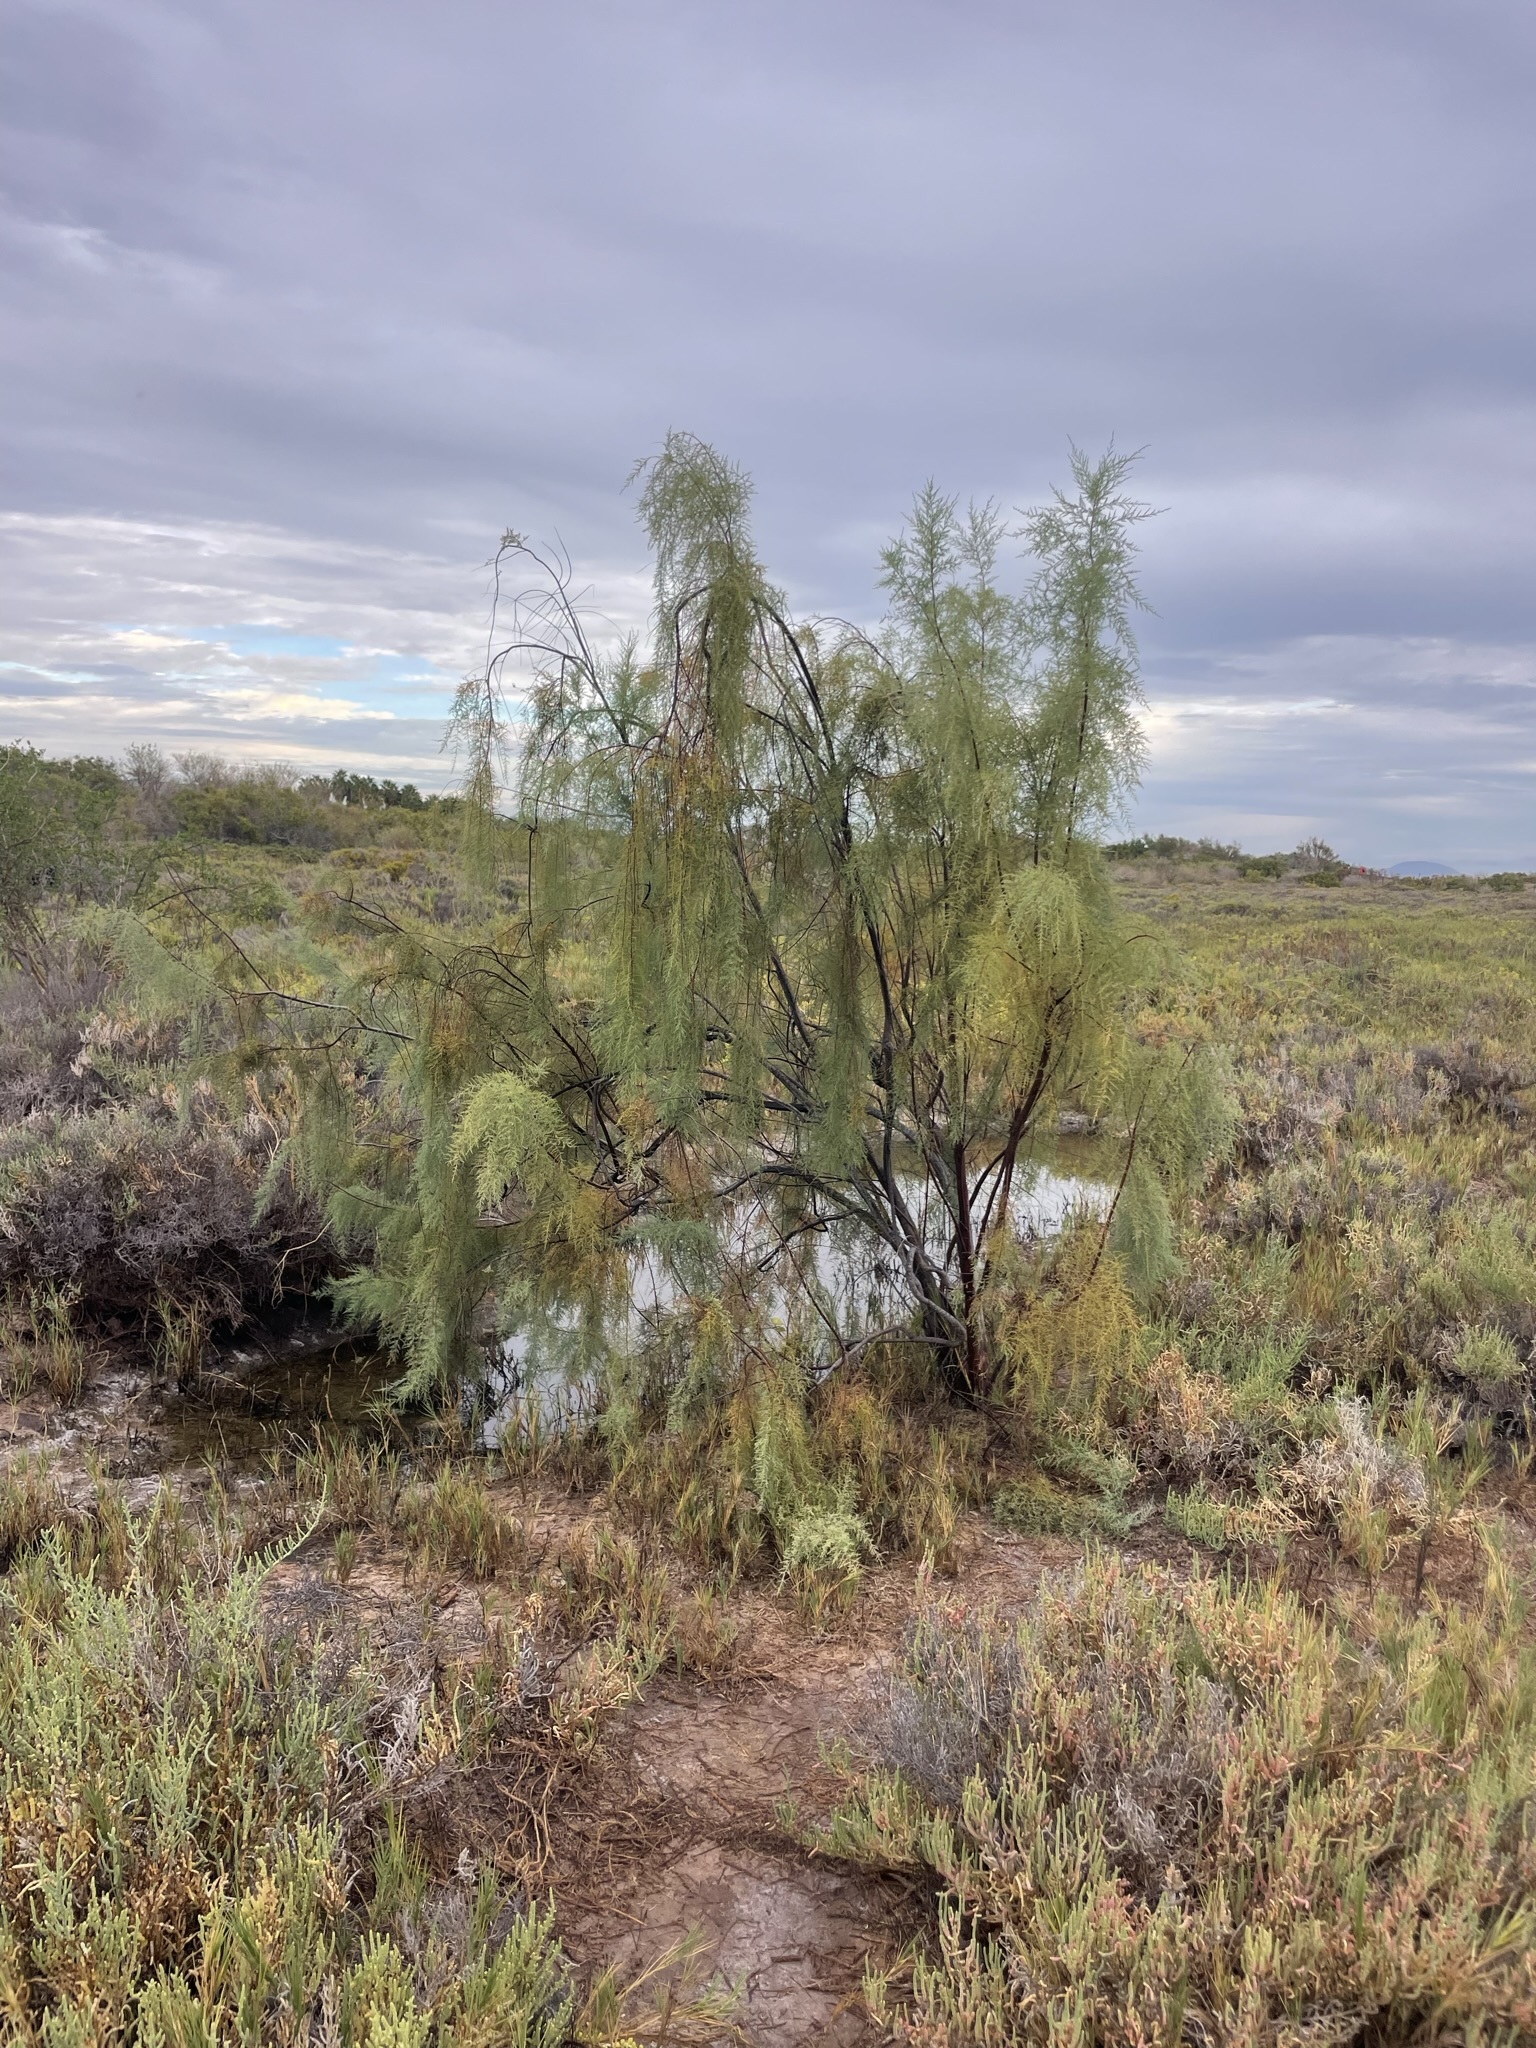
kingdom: Plantae
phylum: Tracheophyta
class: Magnoliopsida
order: Caryophyllales
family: Tamaricaceae
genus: Tamarix
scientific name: Tamarix
